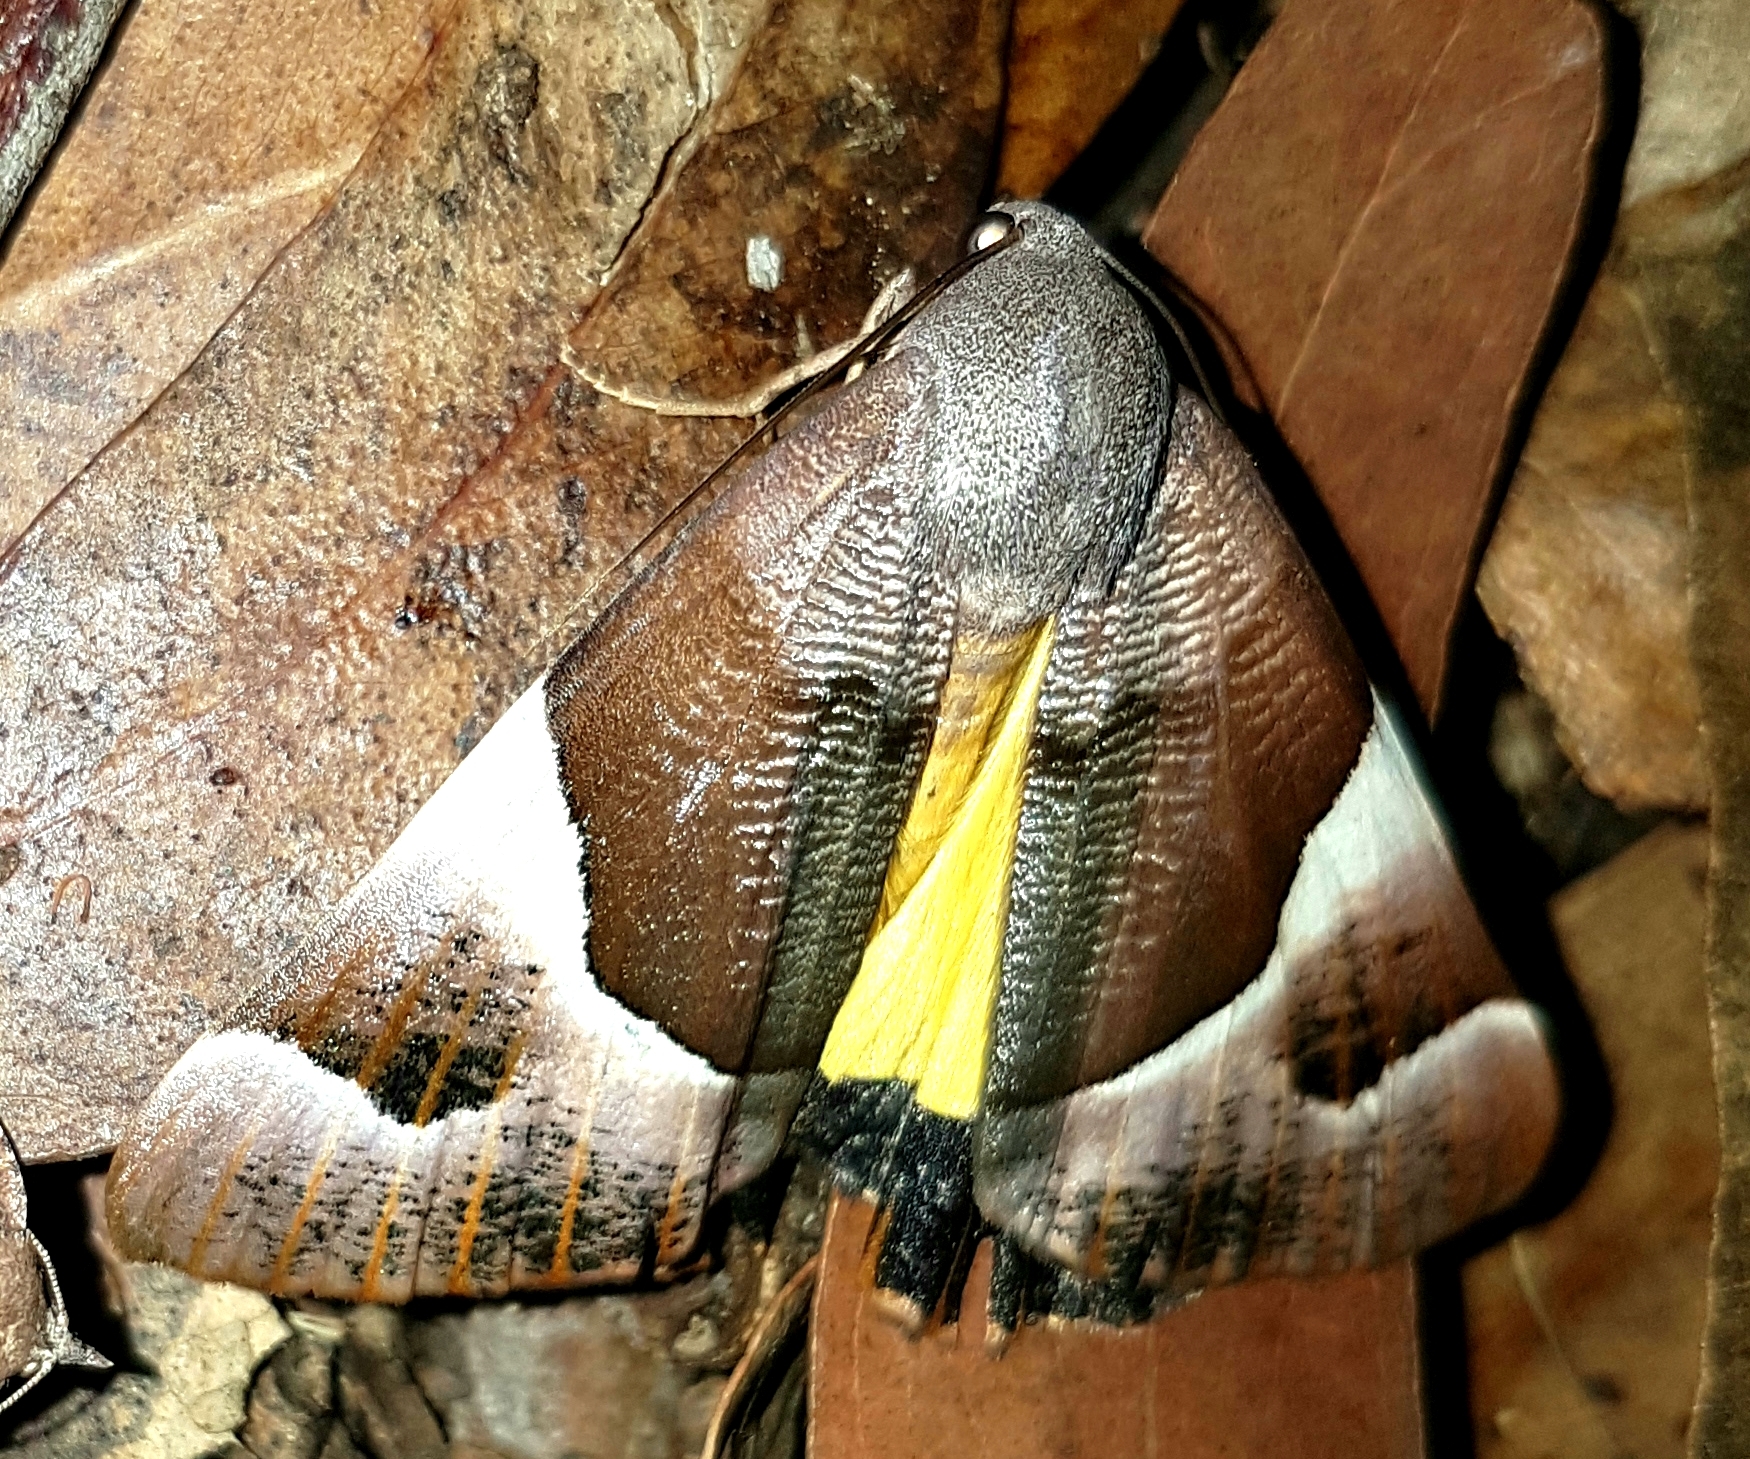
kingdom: Animalia
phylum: Arthropoda
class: Insecta
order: Lepidoptera
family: Geometridae
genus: Niceteria
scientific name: Niceteria macrocosma
